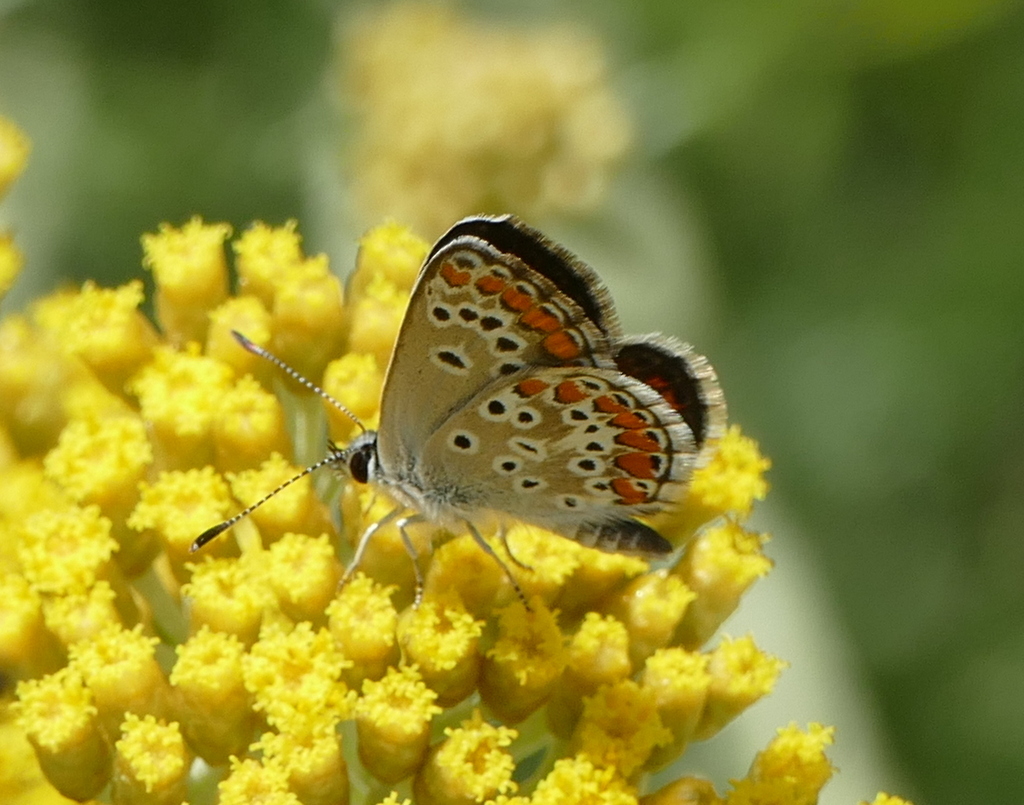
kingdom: Animalia
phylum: Arthropoda
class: Insecta
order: Lepidoptera
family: Lycaenidae
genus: Aricia
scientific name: Aricia agestis
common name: Brown argus
